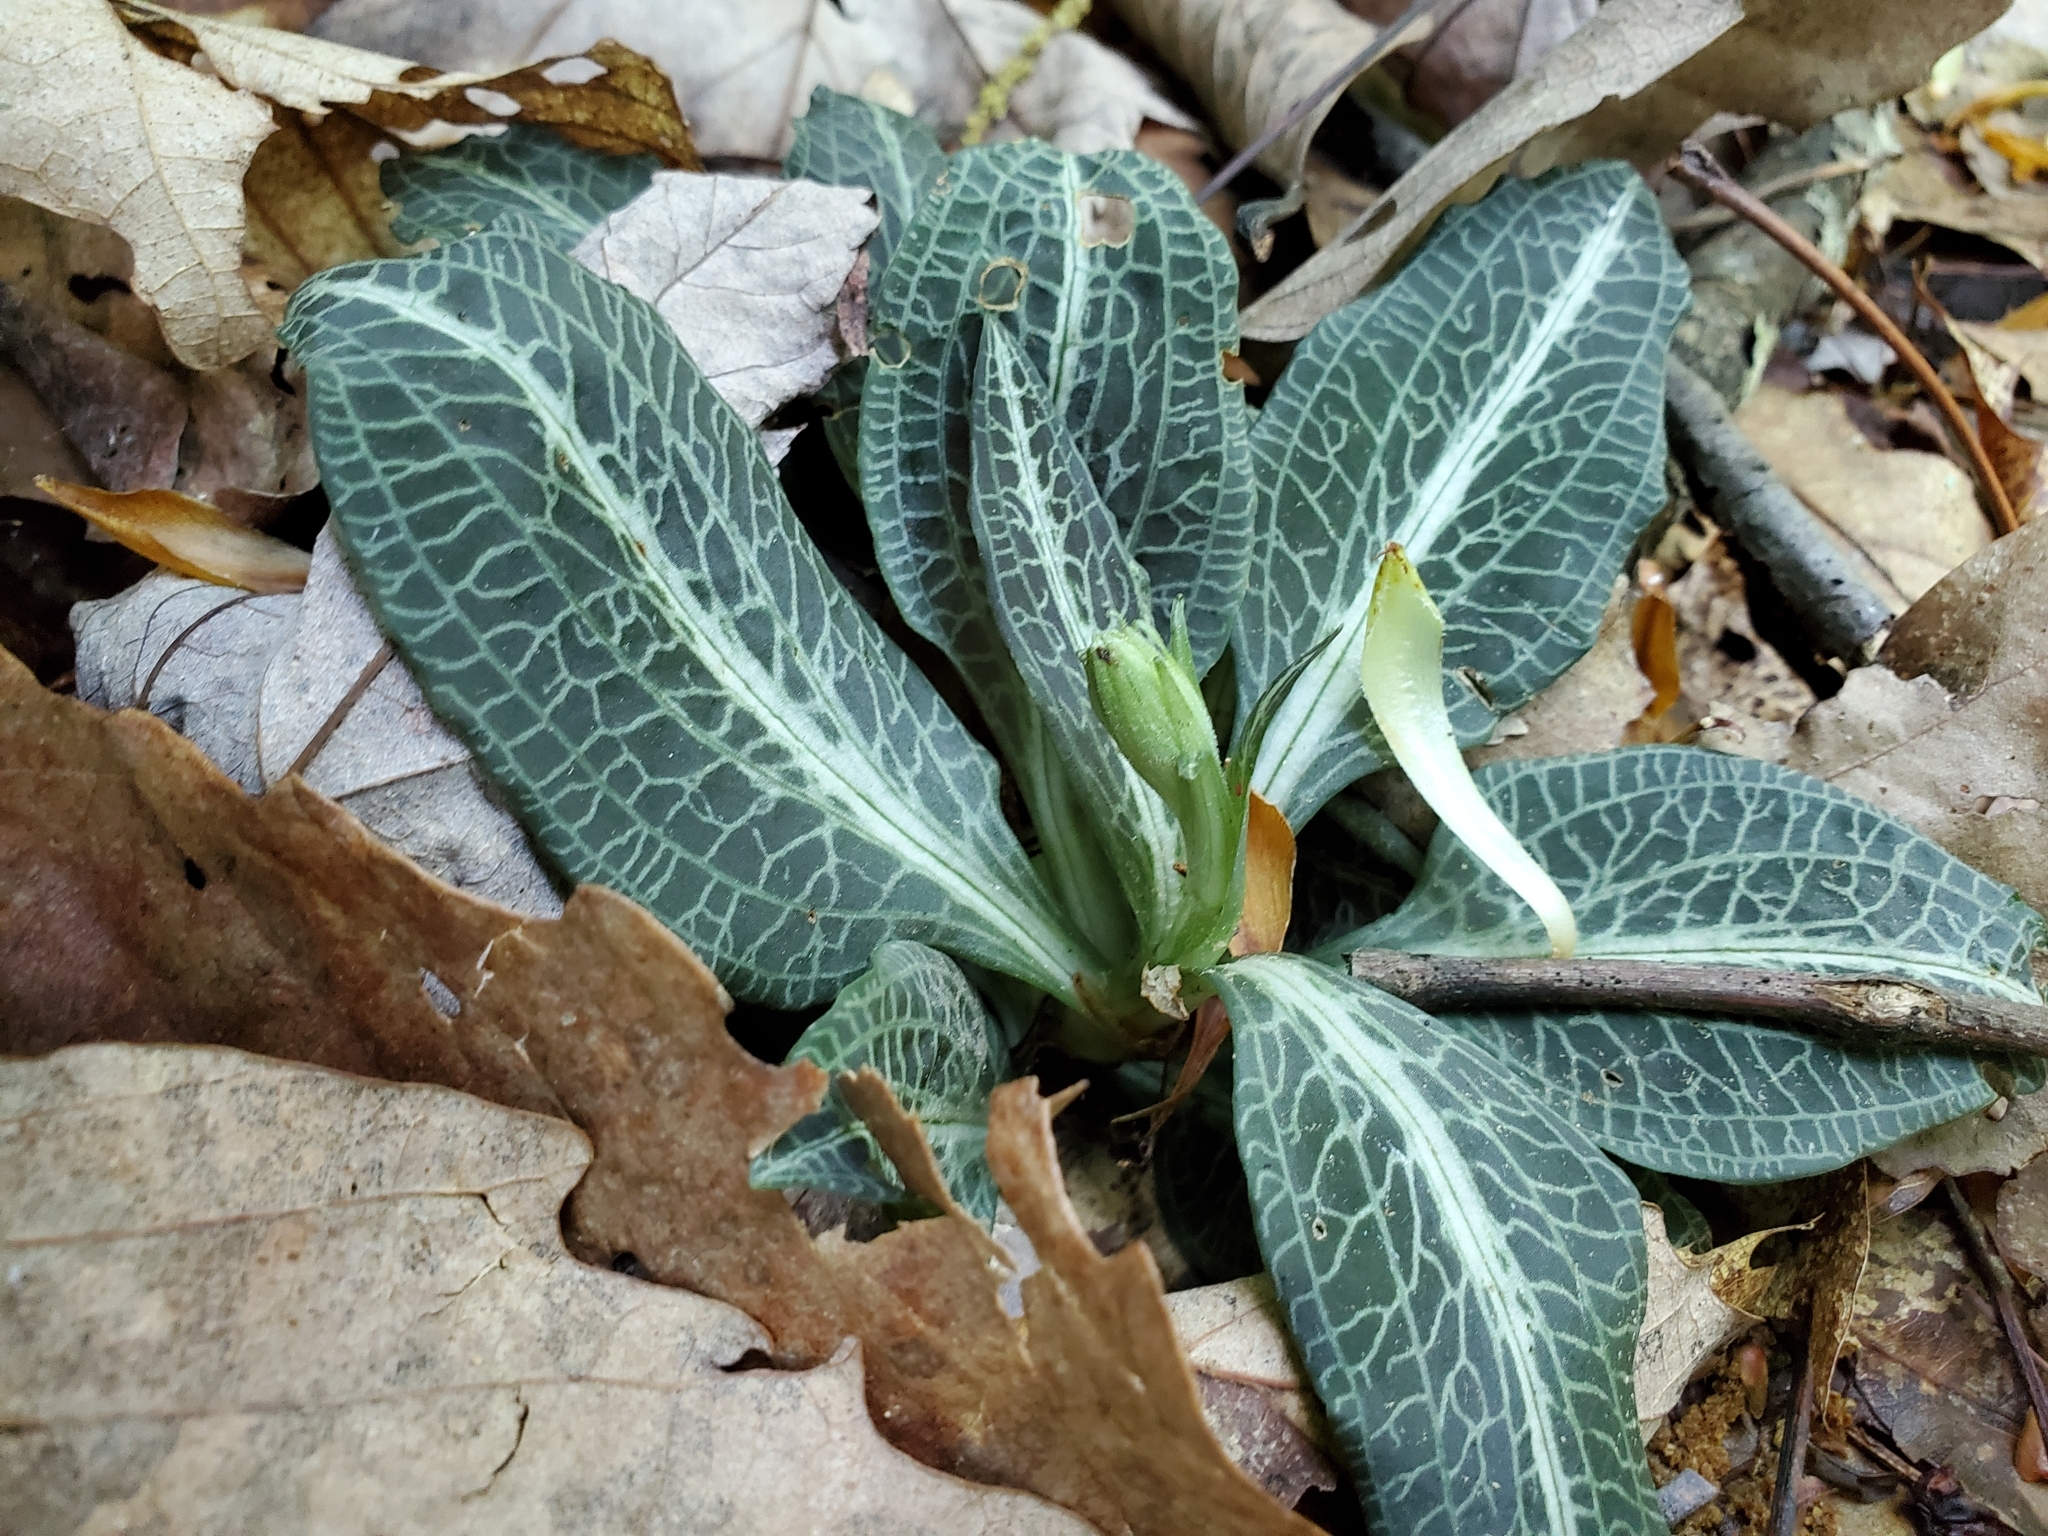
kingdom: Plantae
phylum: Tracheophyta
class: Liliopsida
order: Asparagales
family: Orchidaceae
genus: Goodyera
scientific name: Goodyera pubescens
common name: Downy rattlesnake-plantain
